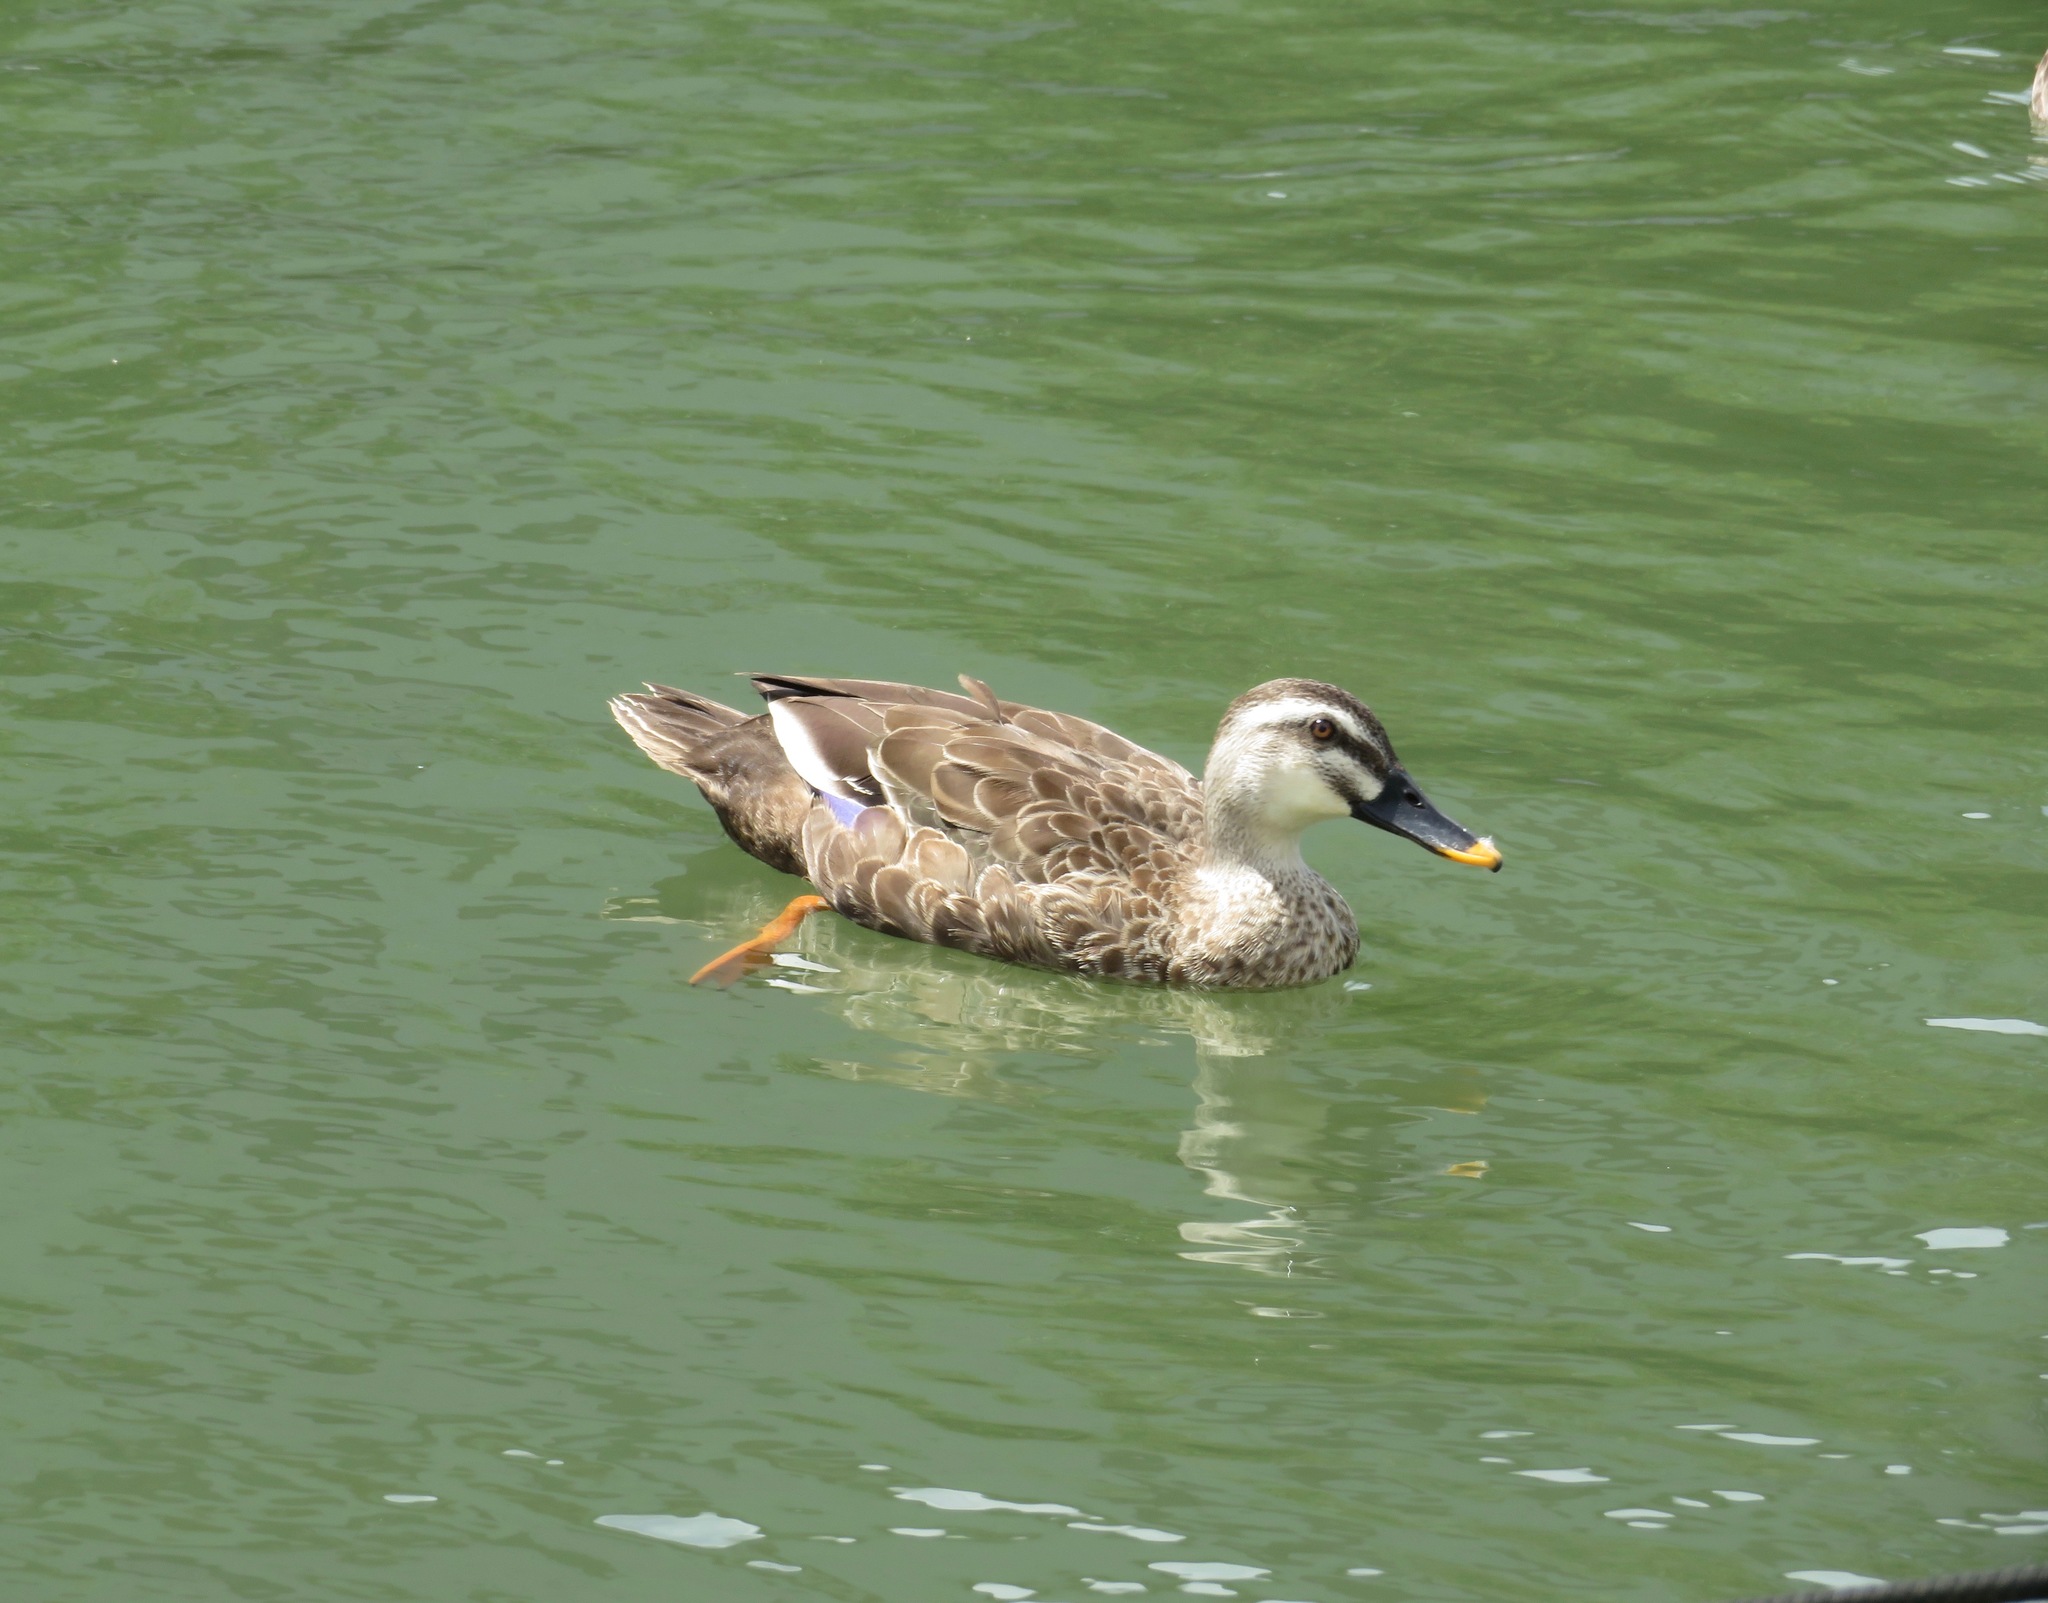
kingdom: Animalia
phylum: Chordata
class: Aves
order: Anseriformes
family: Anatidae
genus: Anas
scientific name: Anas zonorhyncha
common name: Eastern spot-billed duck
